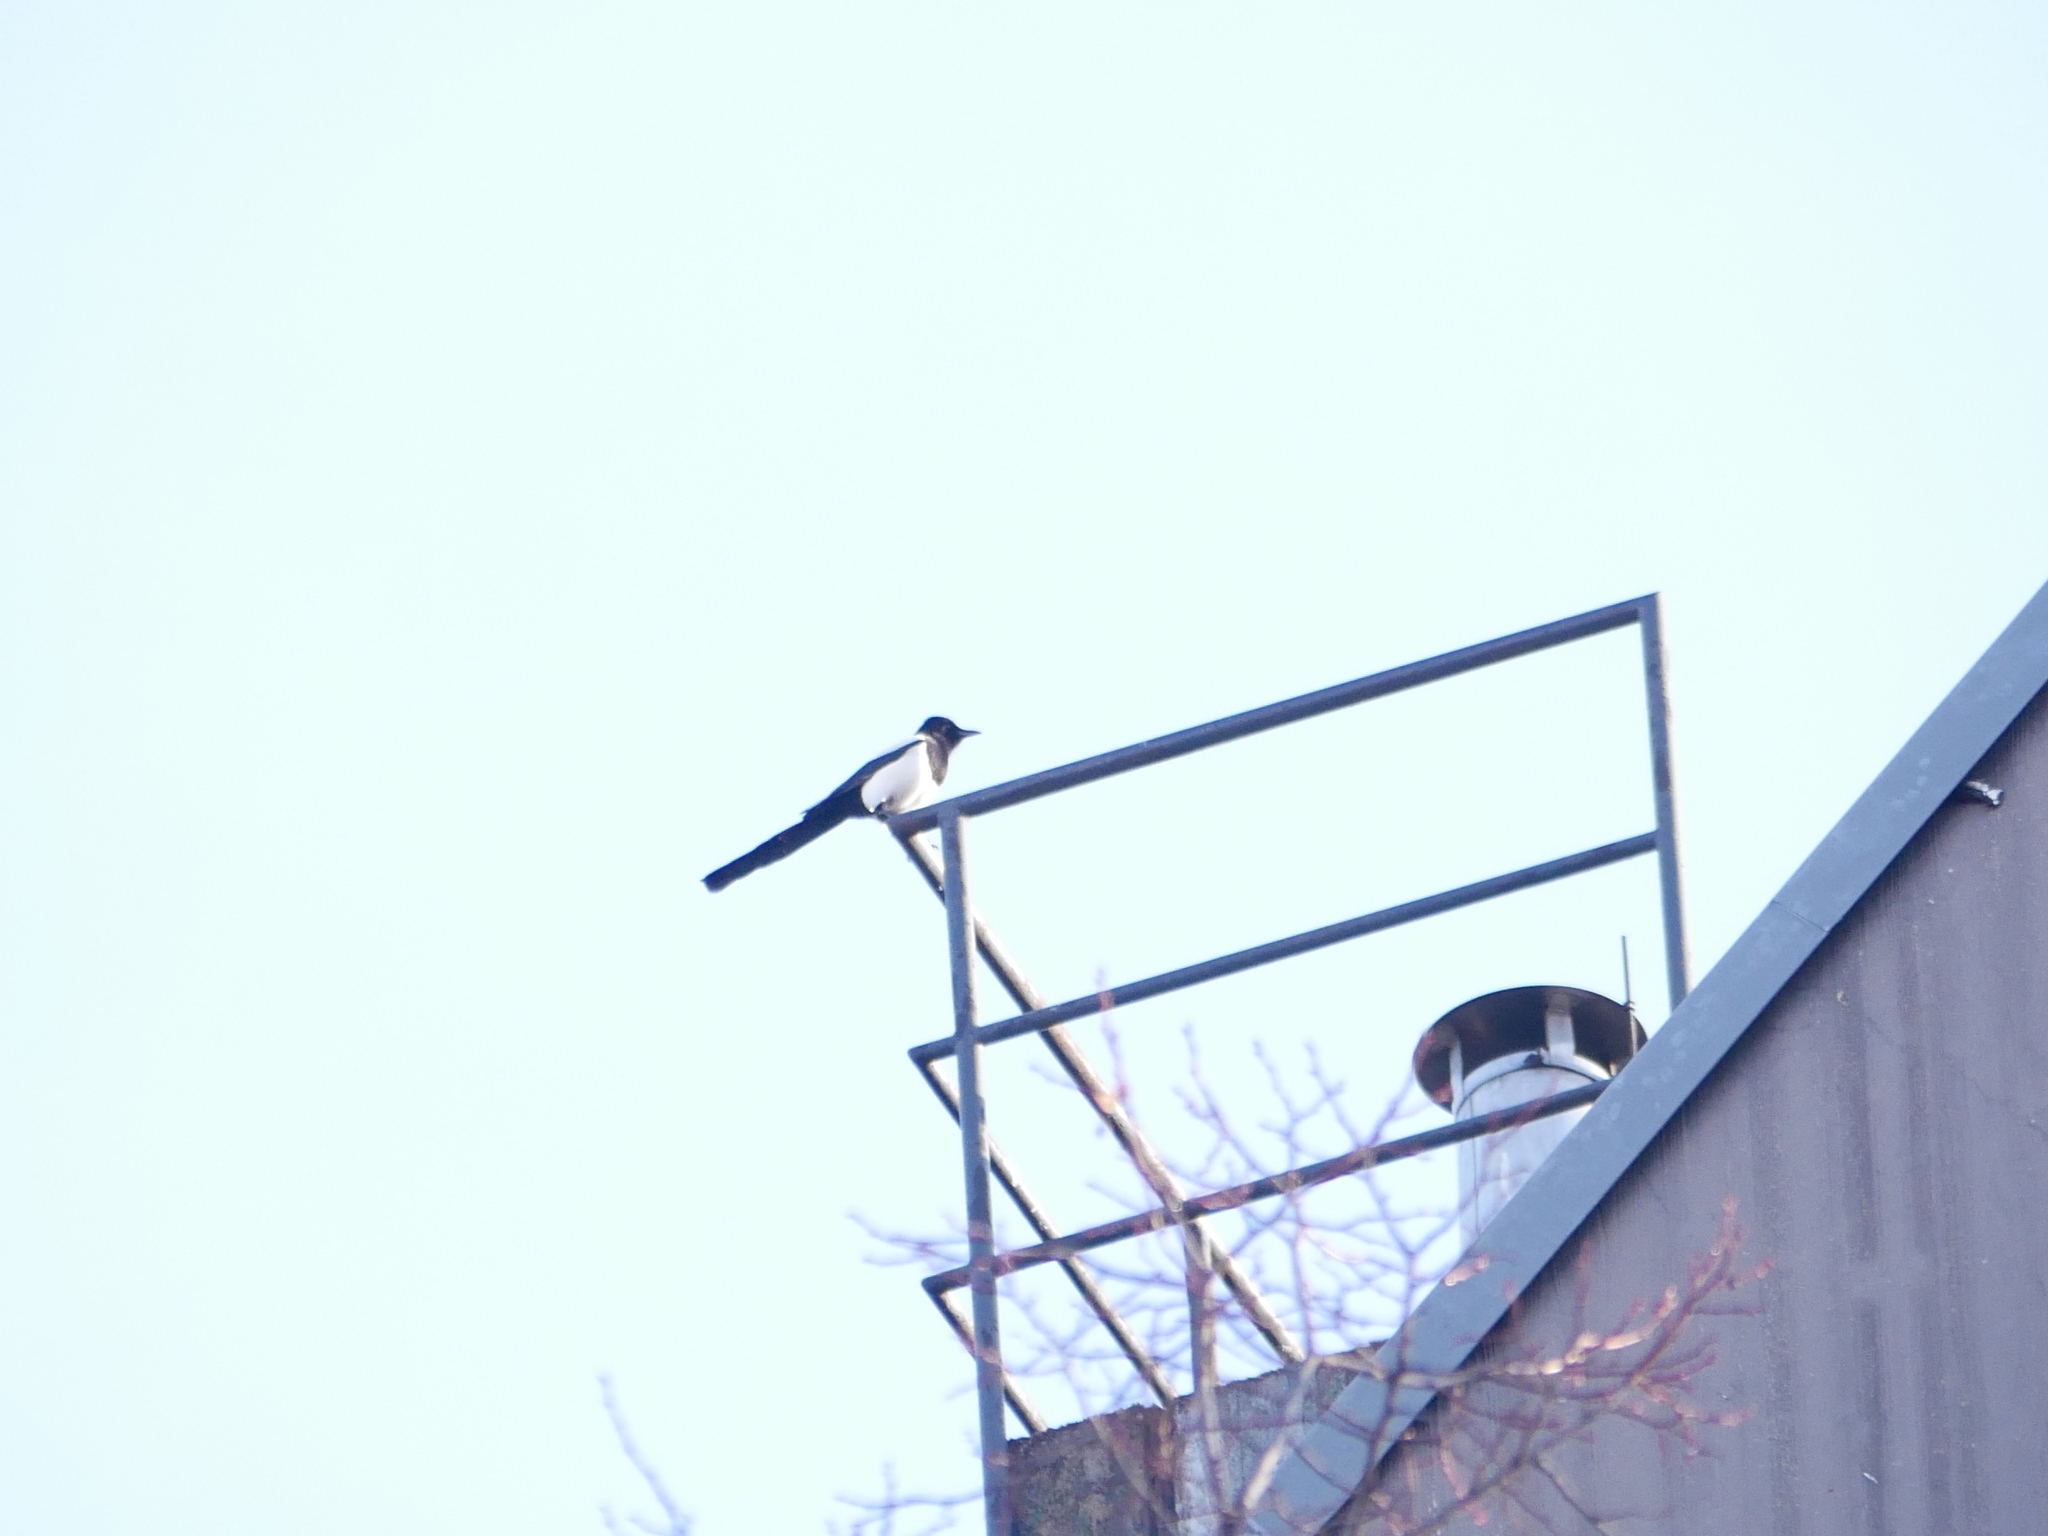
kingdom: Animalia
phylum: Chordata
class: Aves
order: Passeriformes
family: Corvidae
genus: Pica
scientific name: Pica pica
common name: Eurasian magpie
